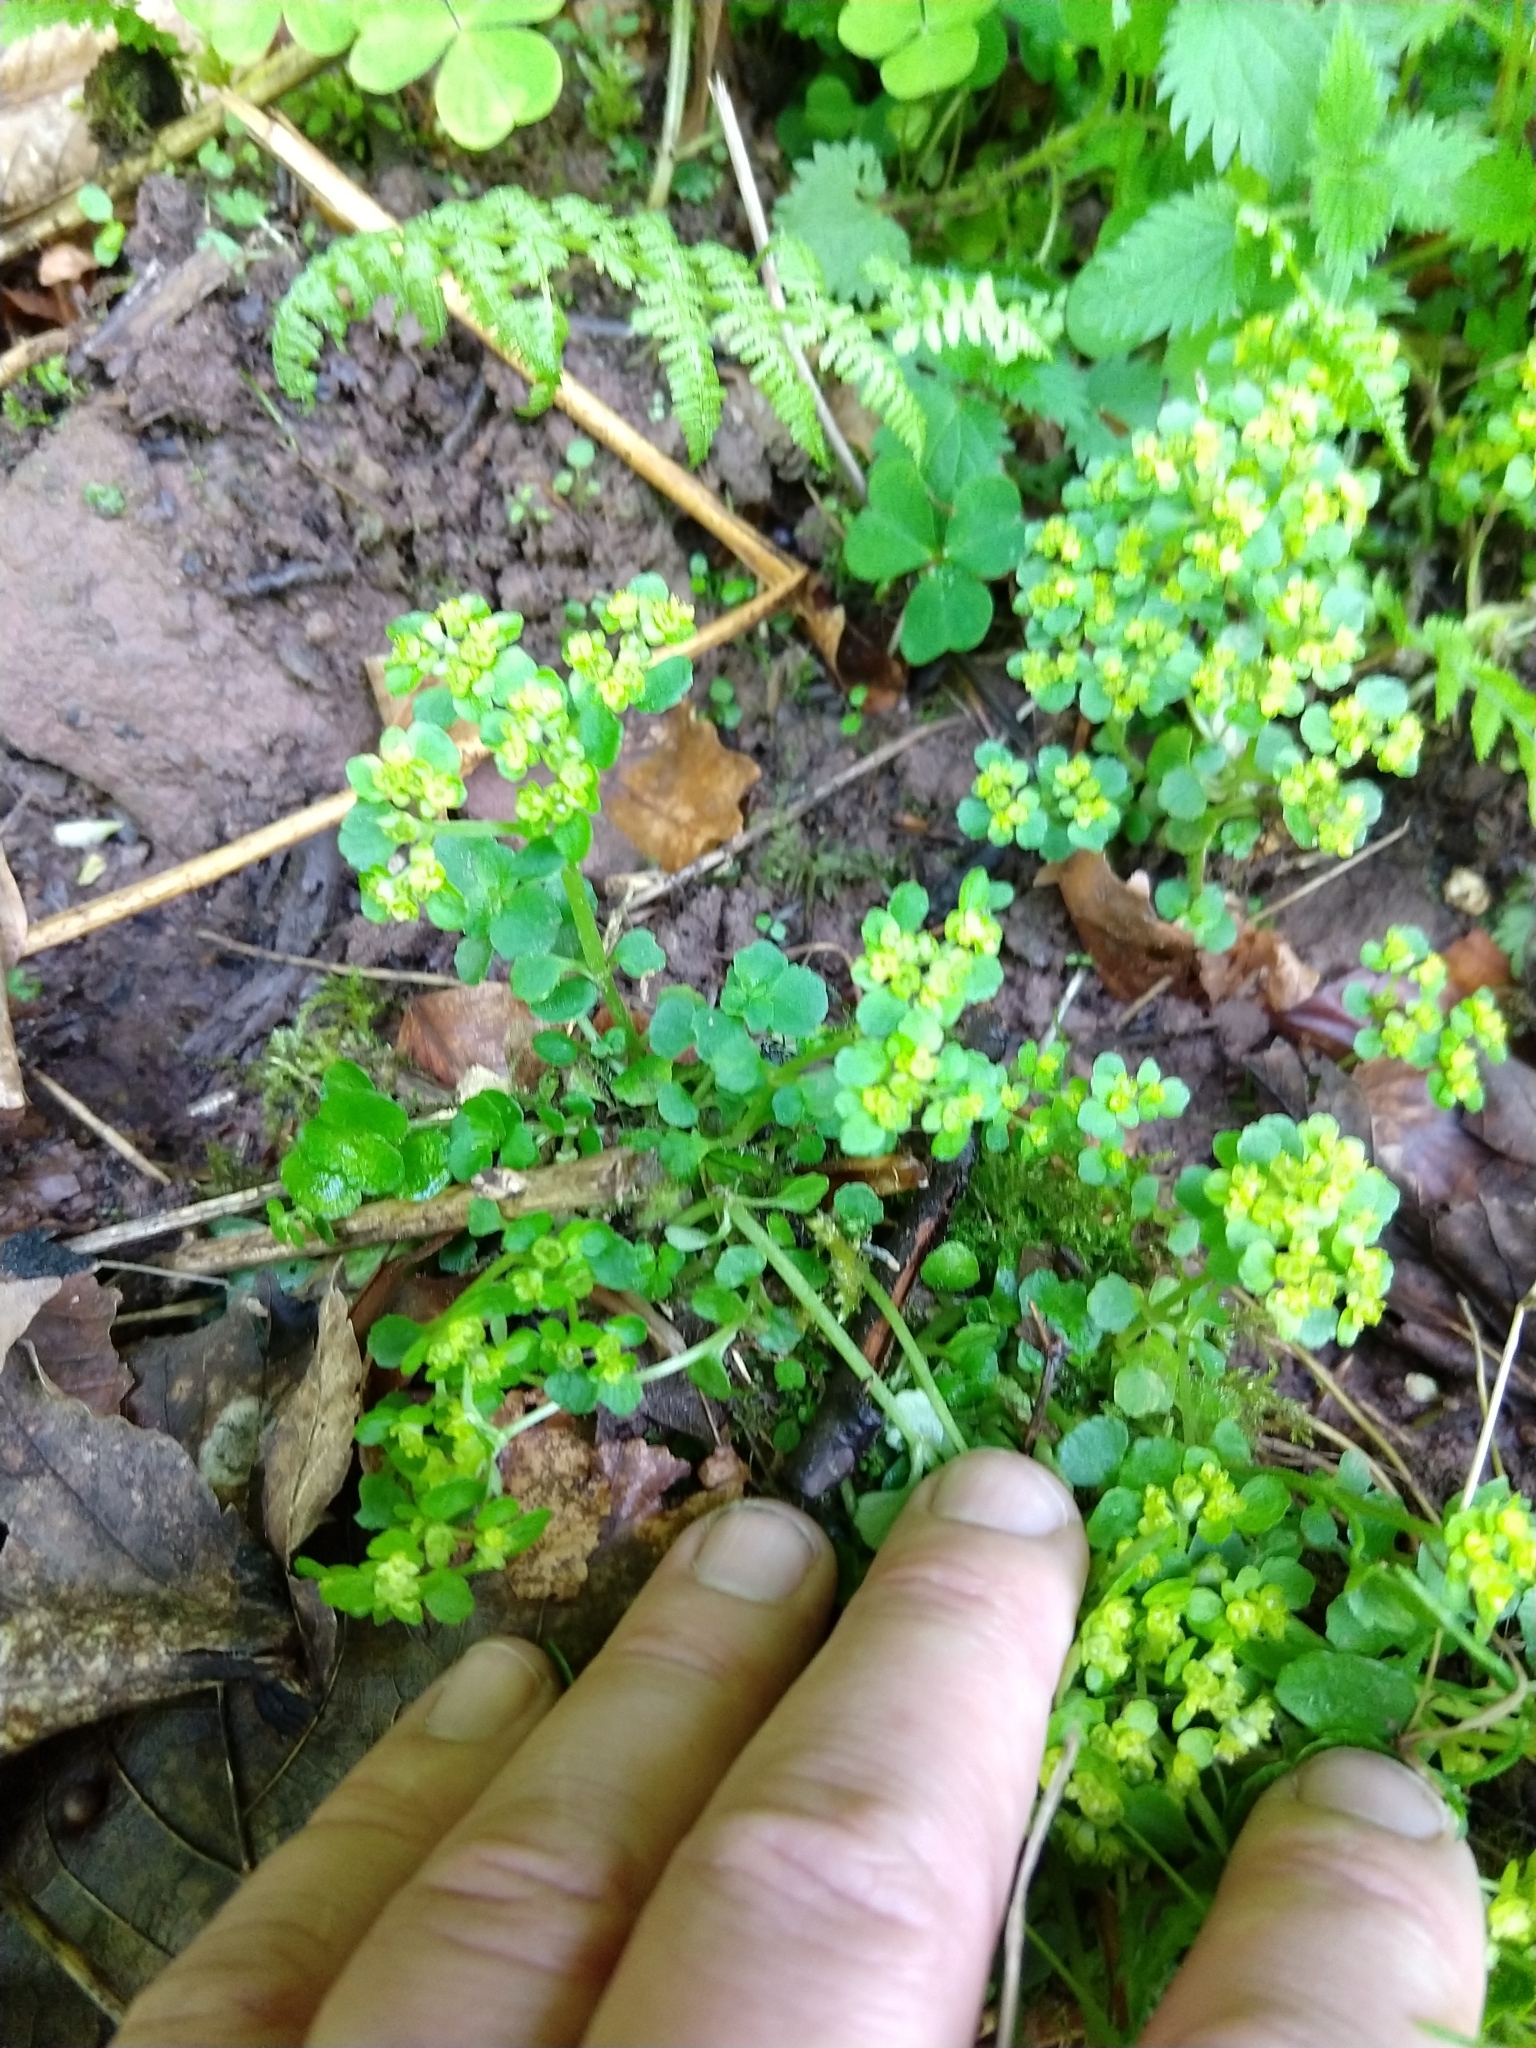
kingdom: Plantae
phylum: Tracheophyta
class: Magnoliopsida
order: Saxifragales
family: Saxifragaceae
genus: Chrysosplenium
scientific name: Chrysosplenium oppositifolium
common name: Opposite-leaved golden-saxifrage
